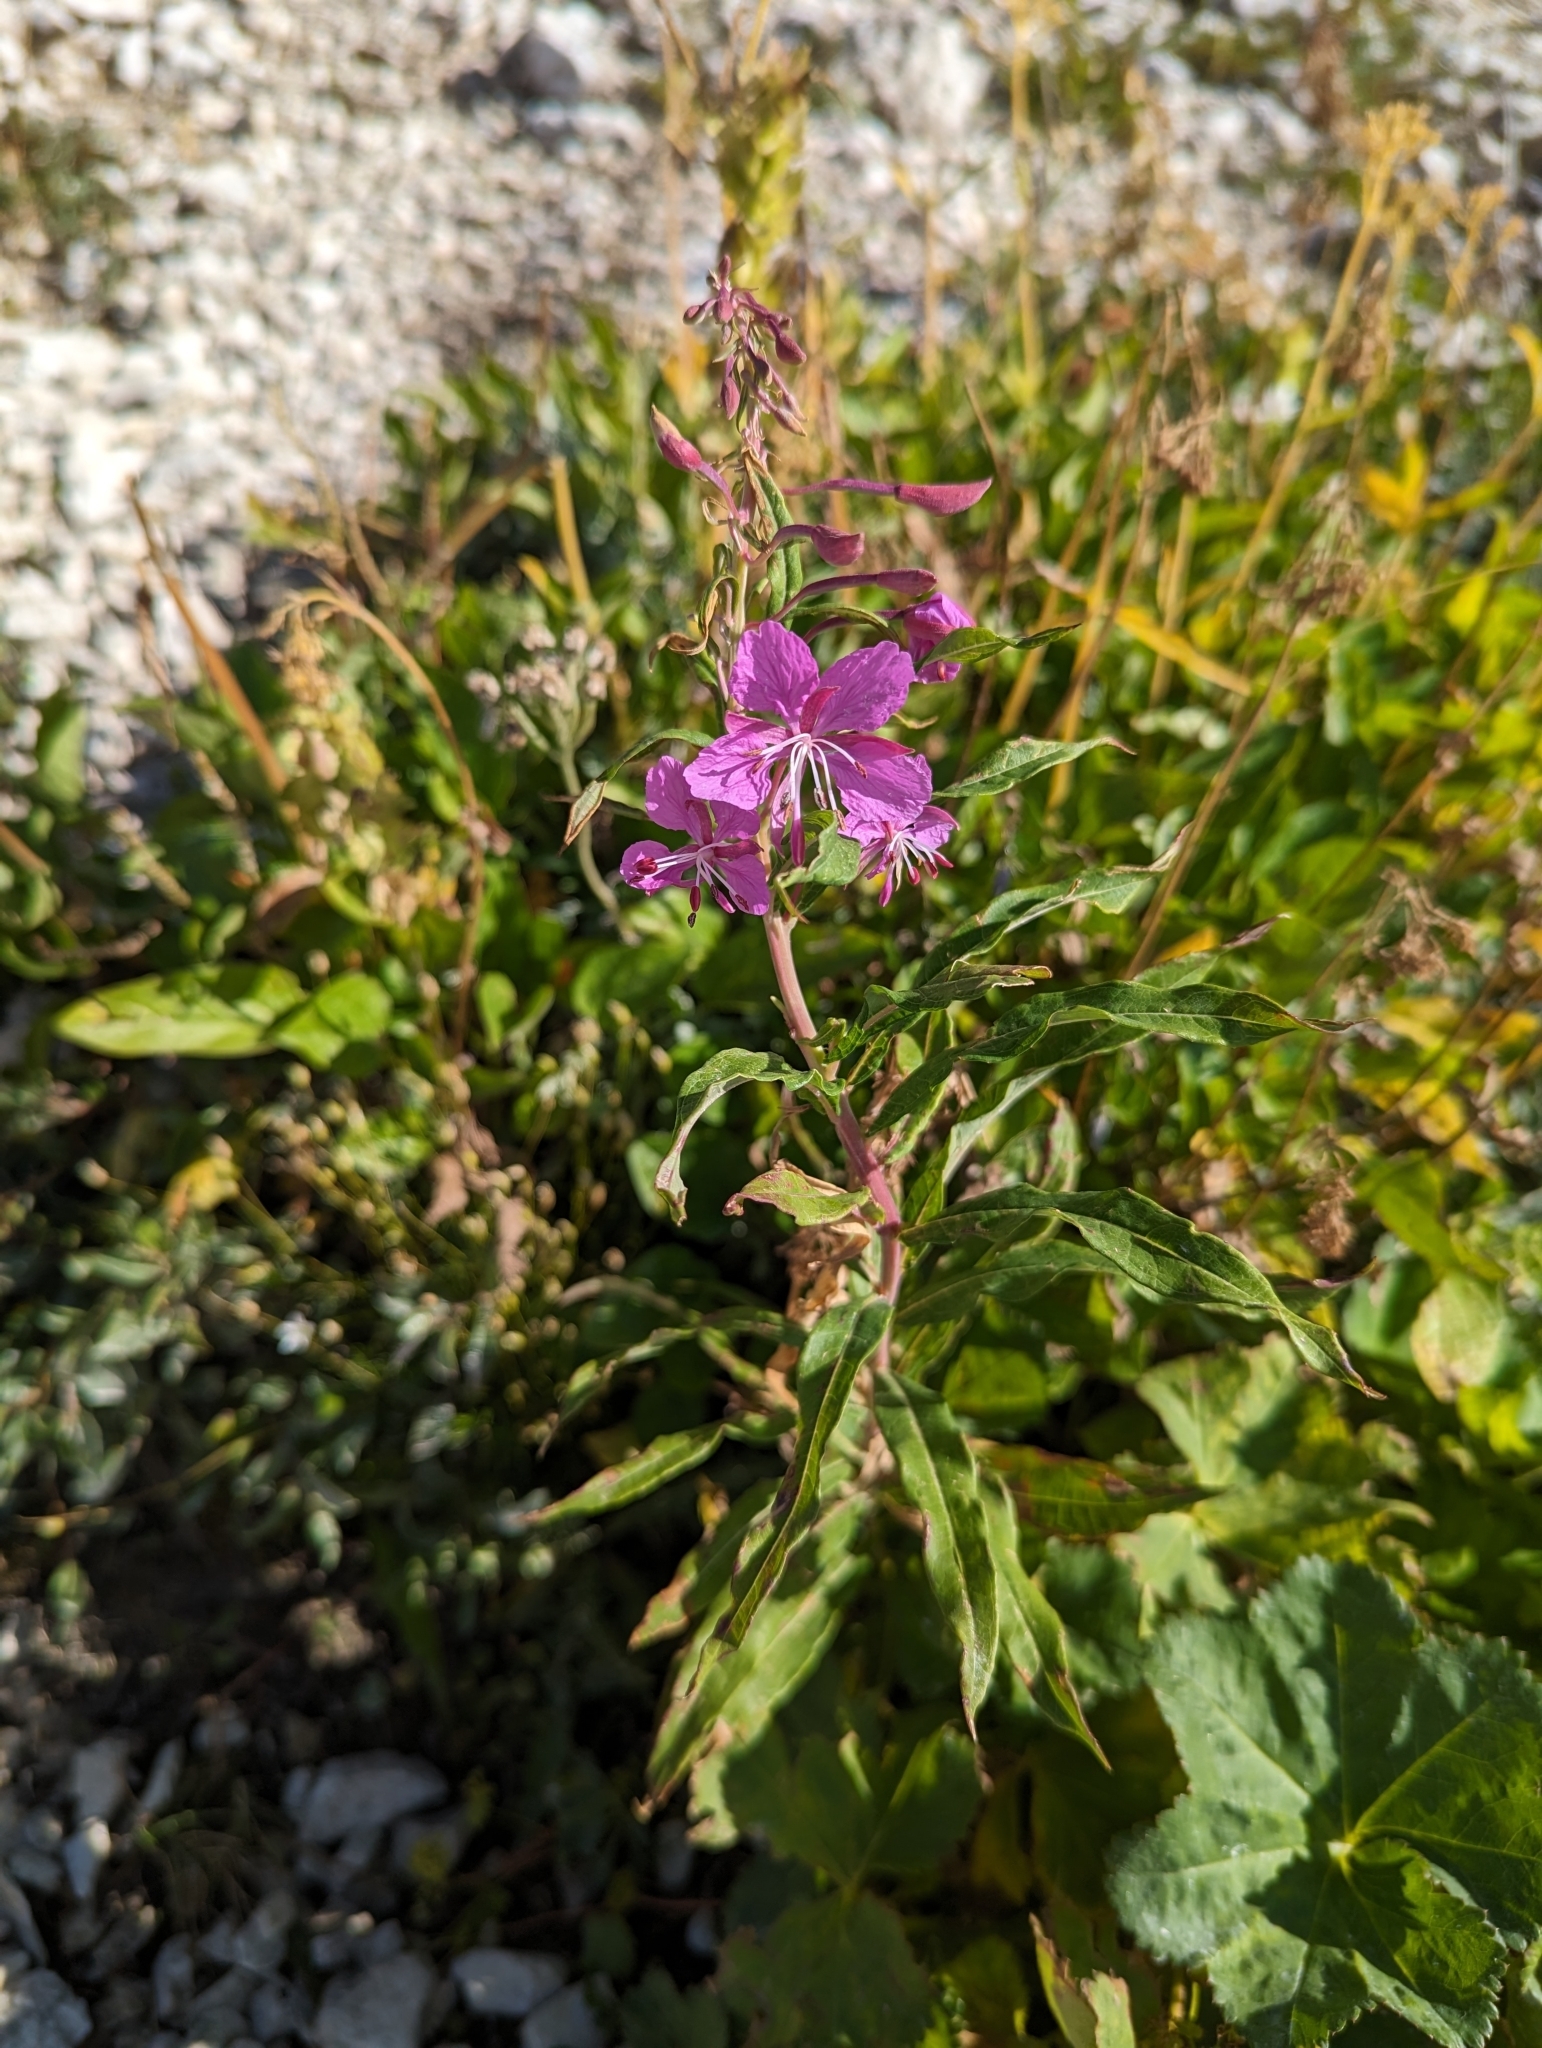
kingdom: Plantae
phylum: Tracheophyta
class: Magnoliopsida
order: Myrtales
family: Onagraceae
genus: Chamaenerion
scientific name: Chamaenerion angustifolium
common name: Fireweed
